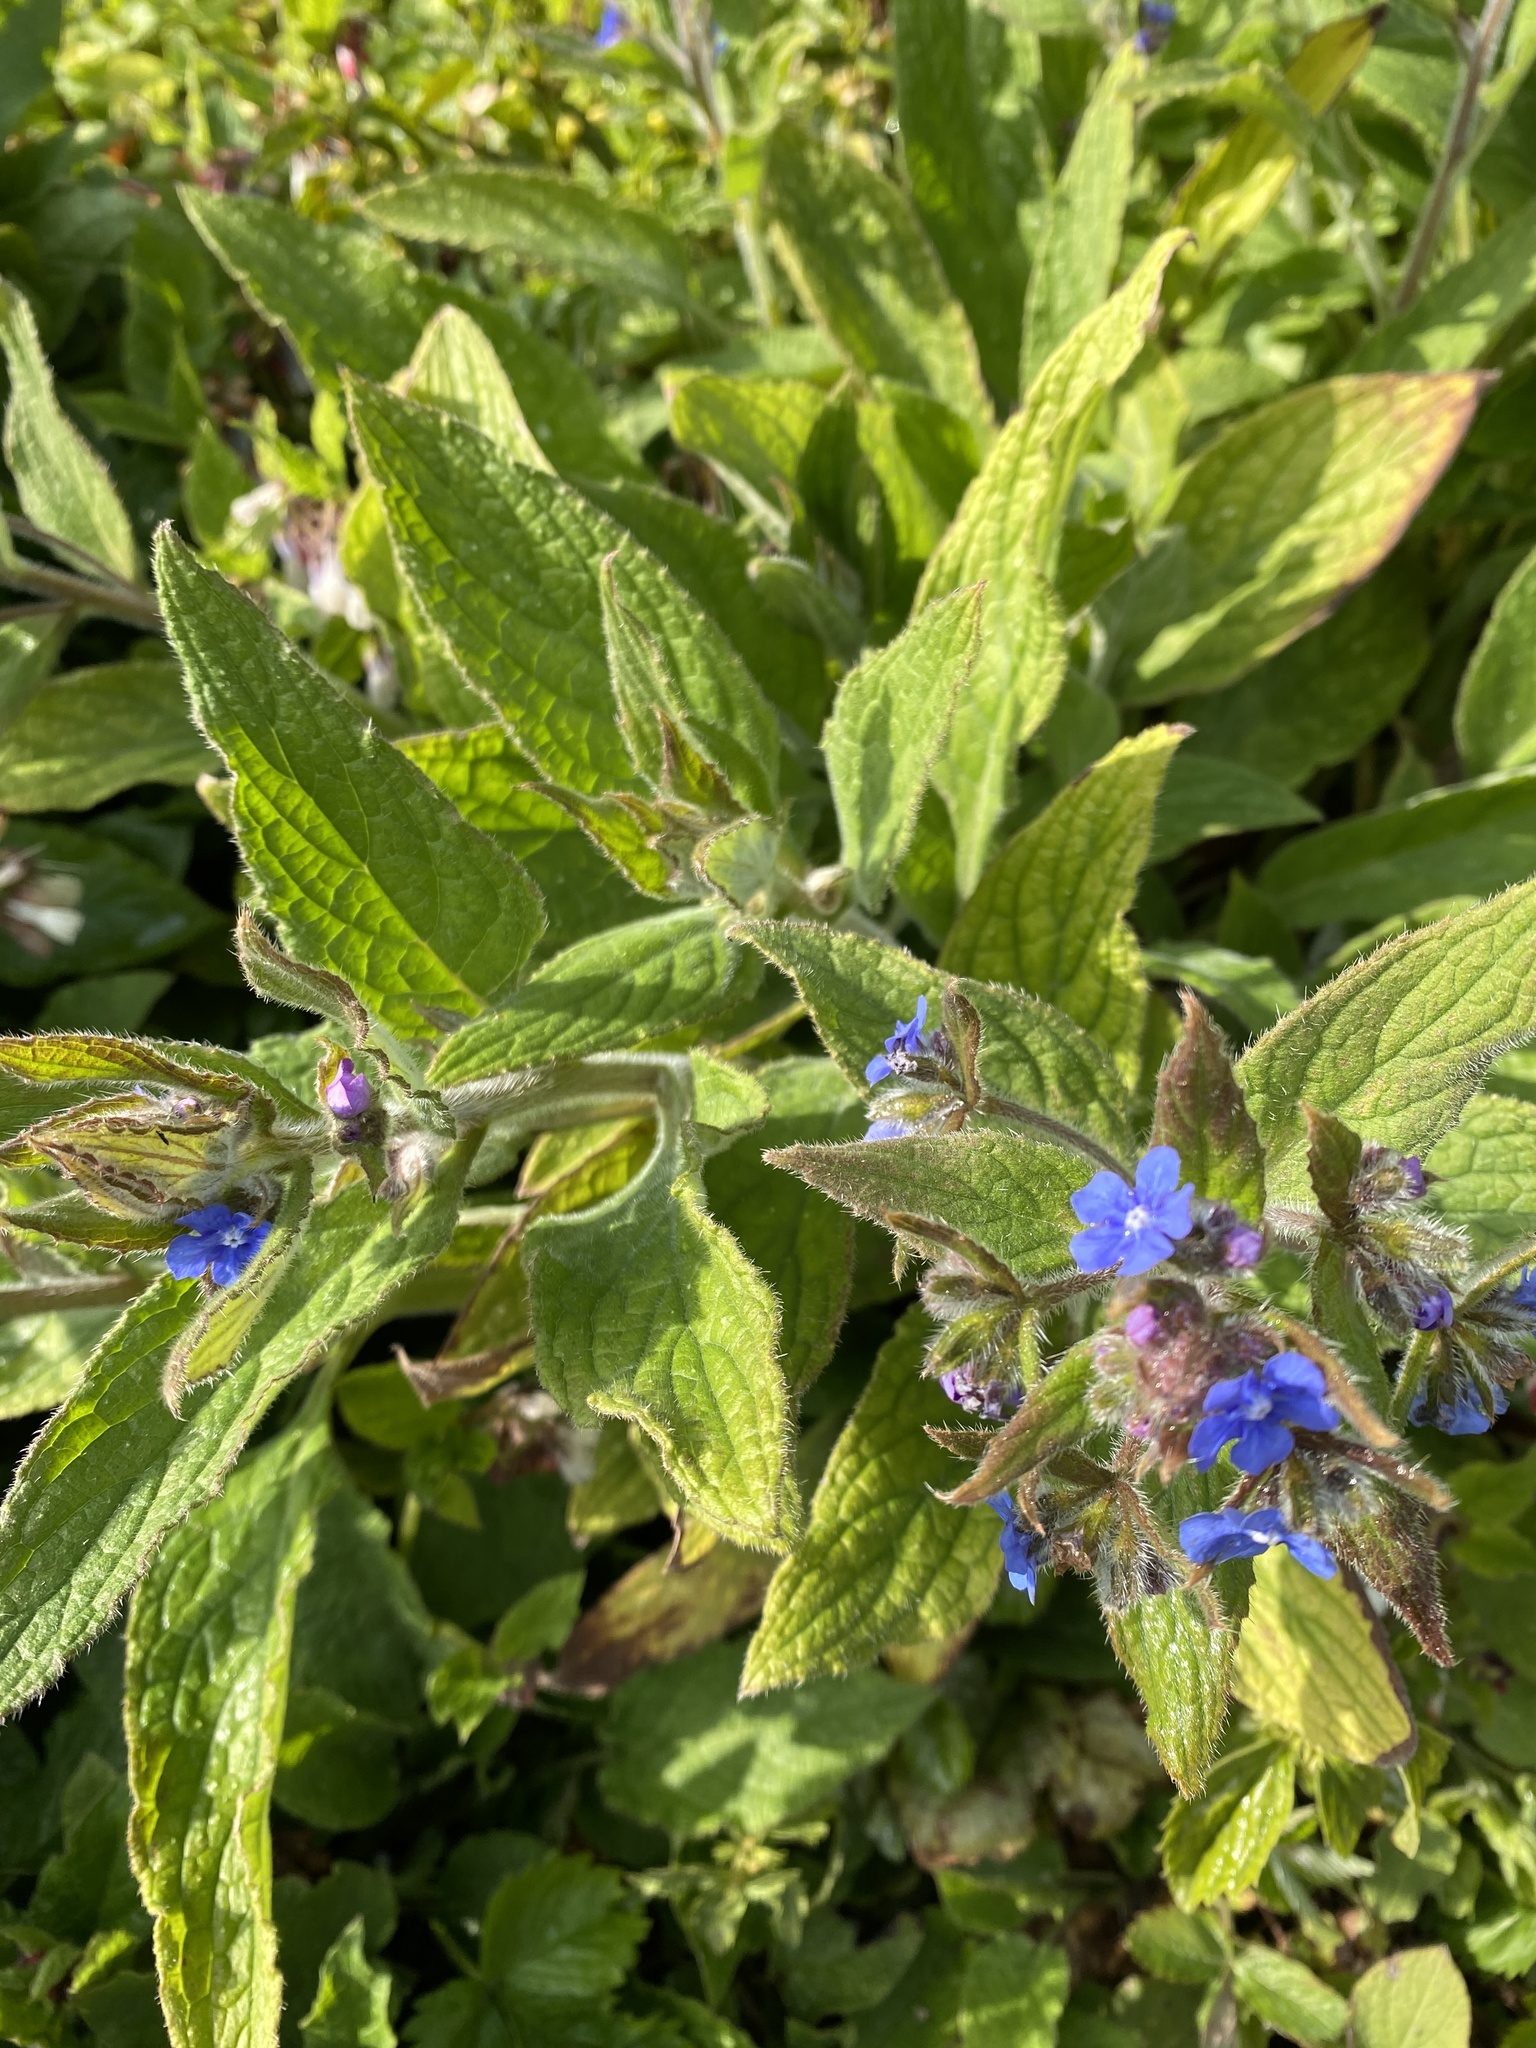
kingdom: Plantae
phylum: Tracheophyta
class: Magnoliopsida
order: Boraginales
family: Boraginaceae
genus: Pentaglottis
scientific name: Pentaglottis sempervirens
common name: Green alkanet
